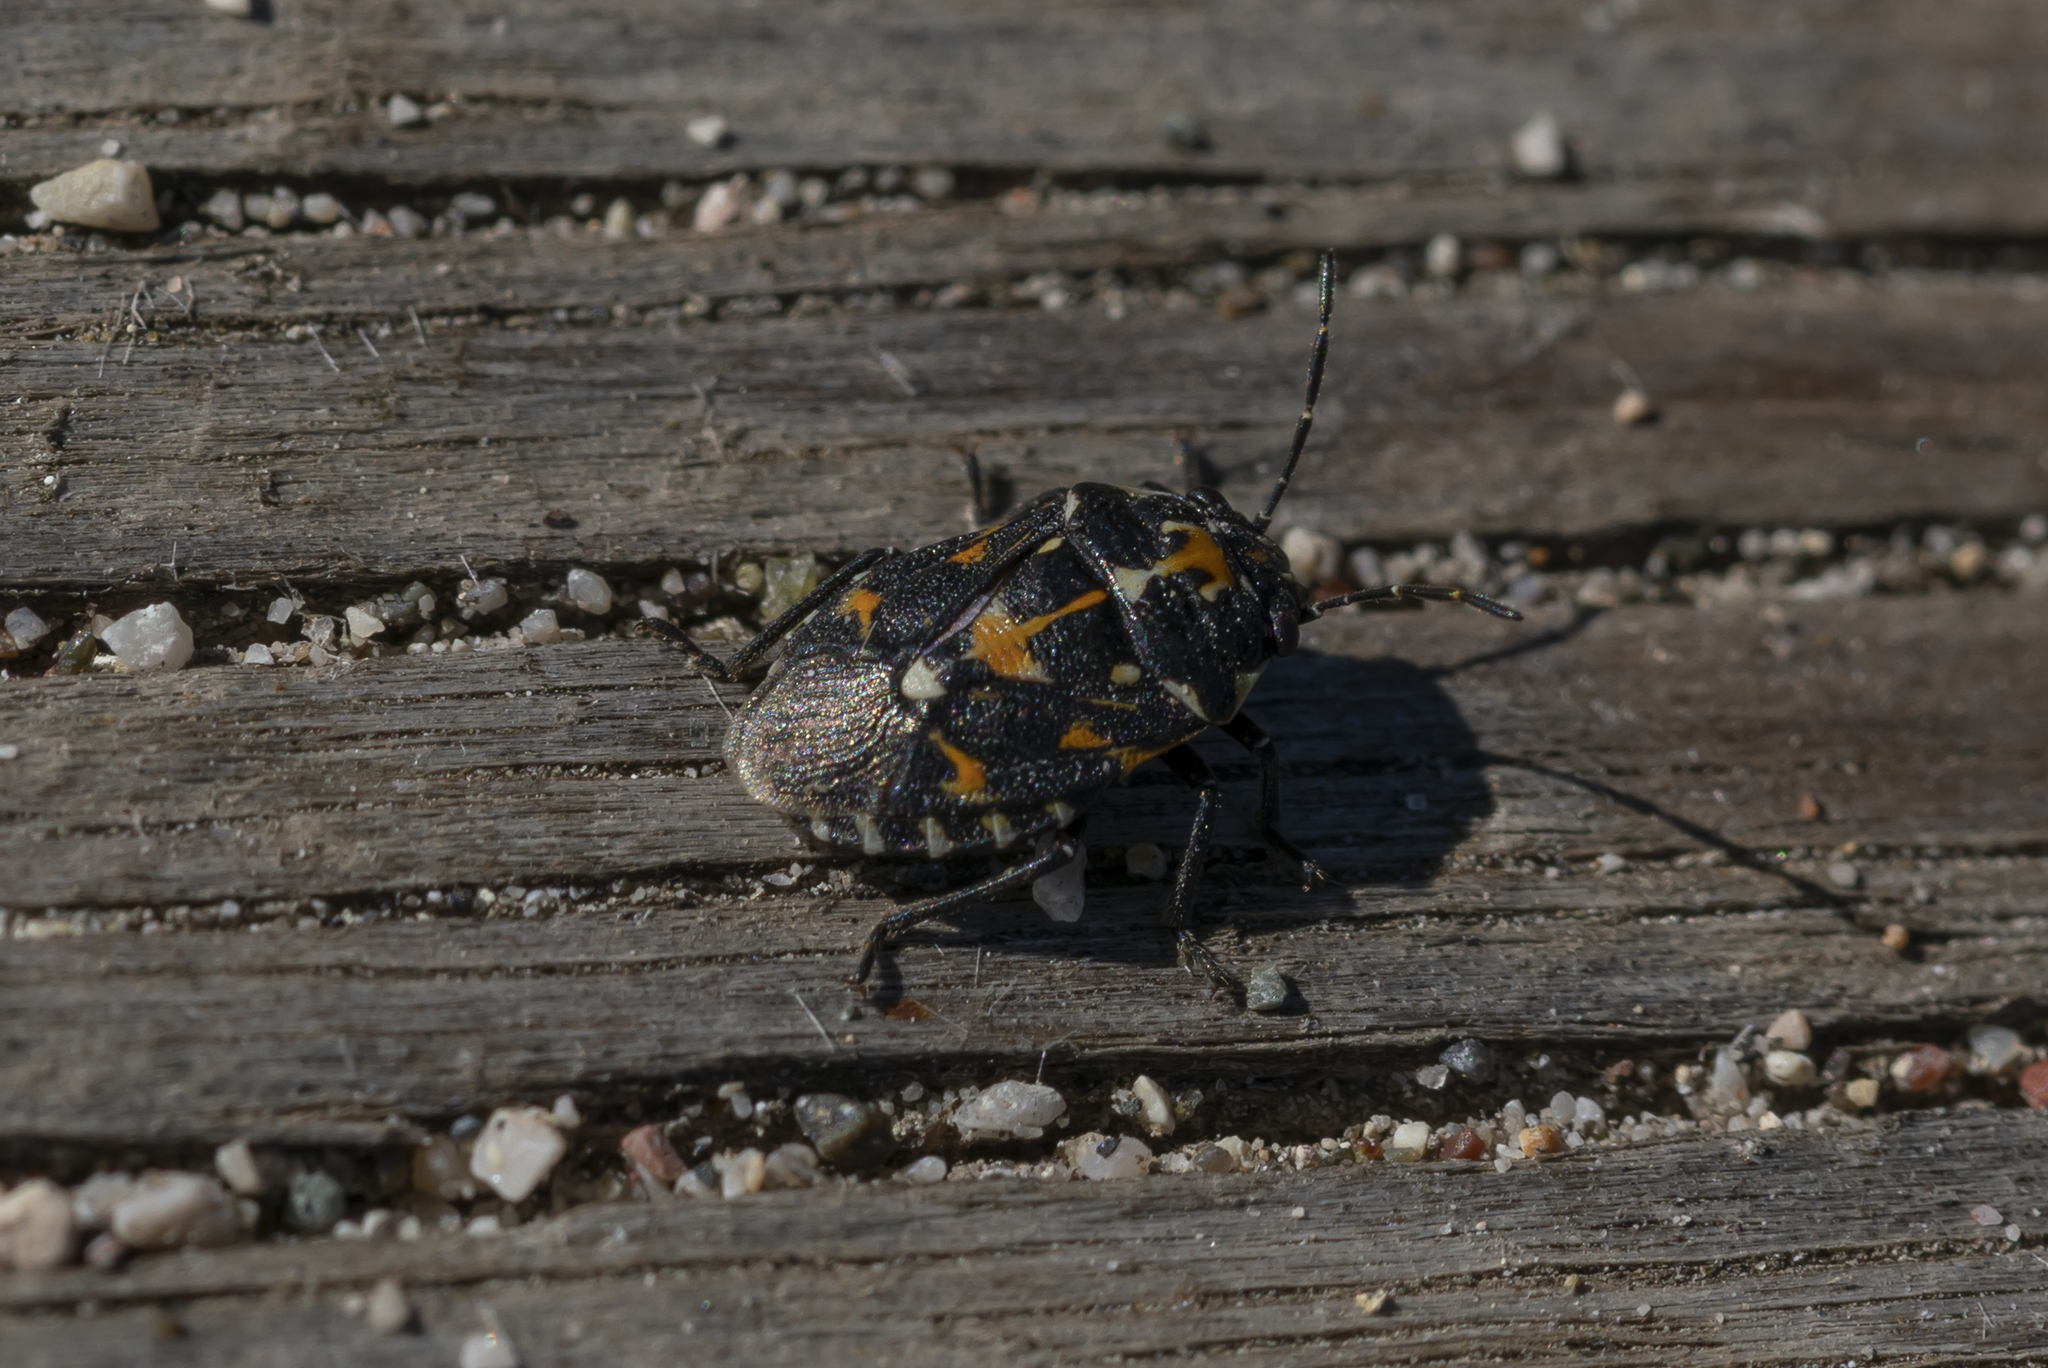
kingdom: Animalia
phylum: Arthropoda
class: Insecta
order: Hemiptera
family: Pentatomidae
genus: Stenozygum
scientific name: Stenozygum coloratum
